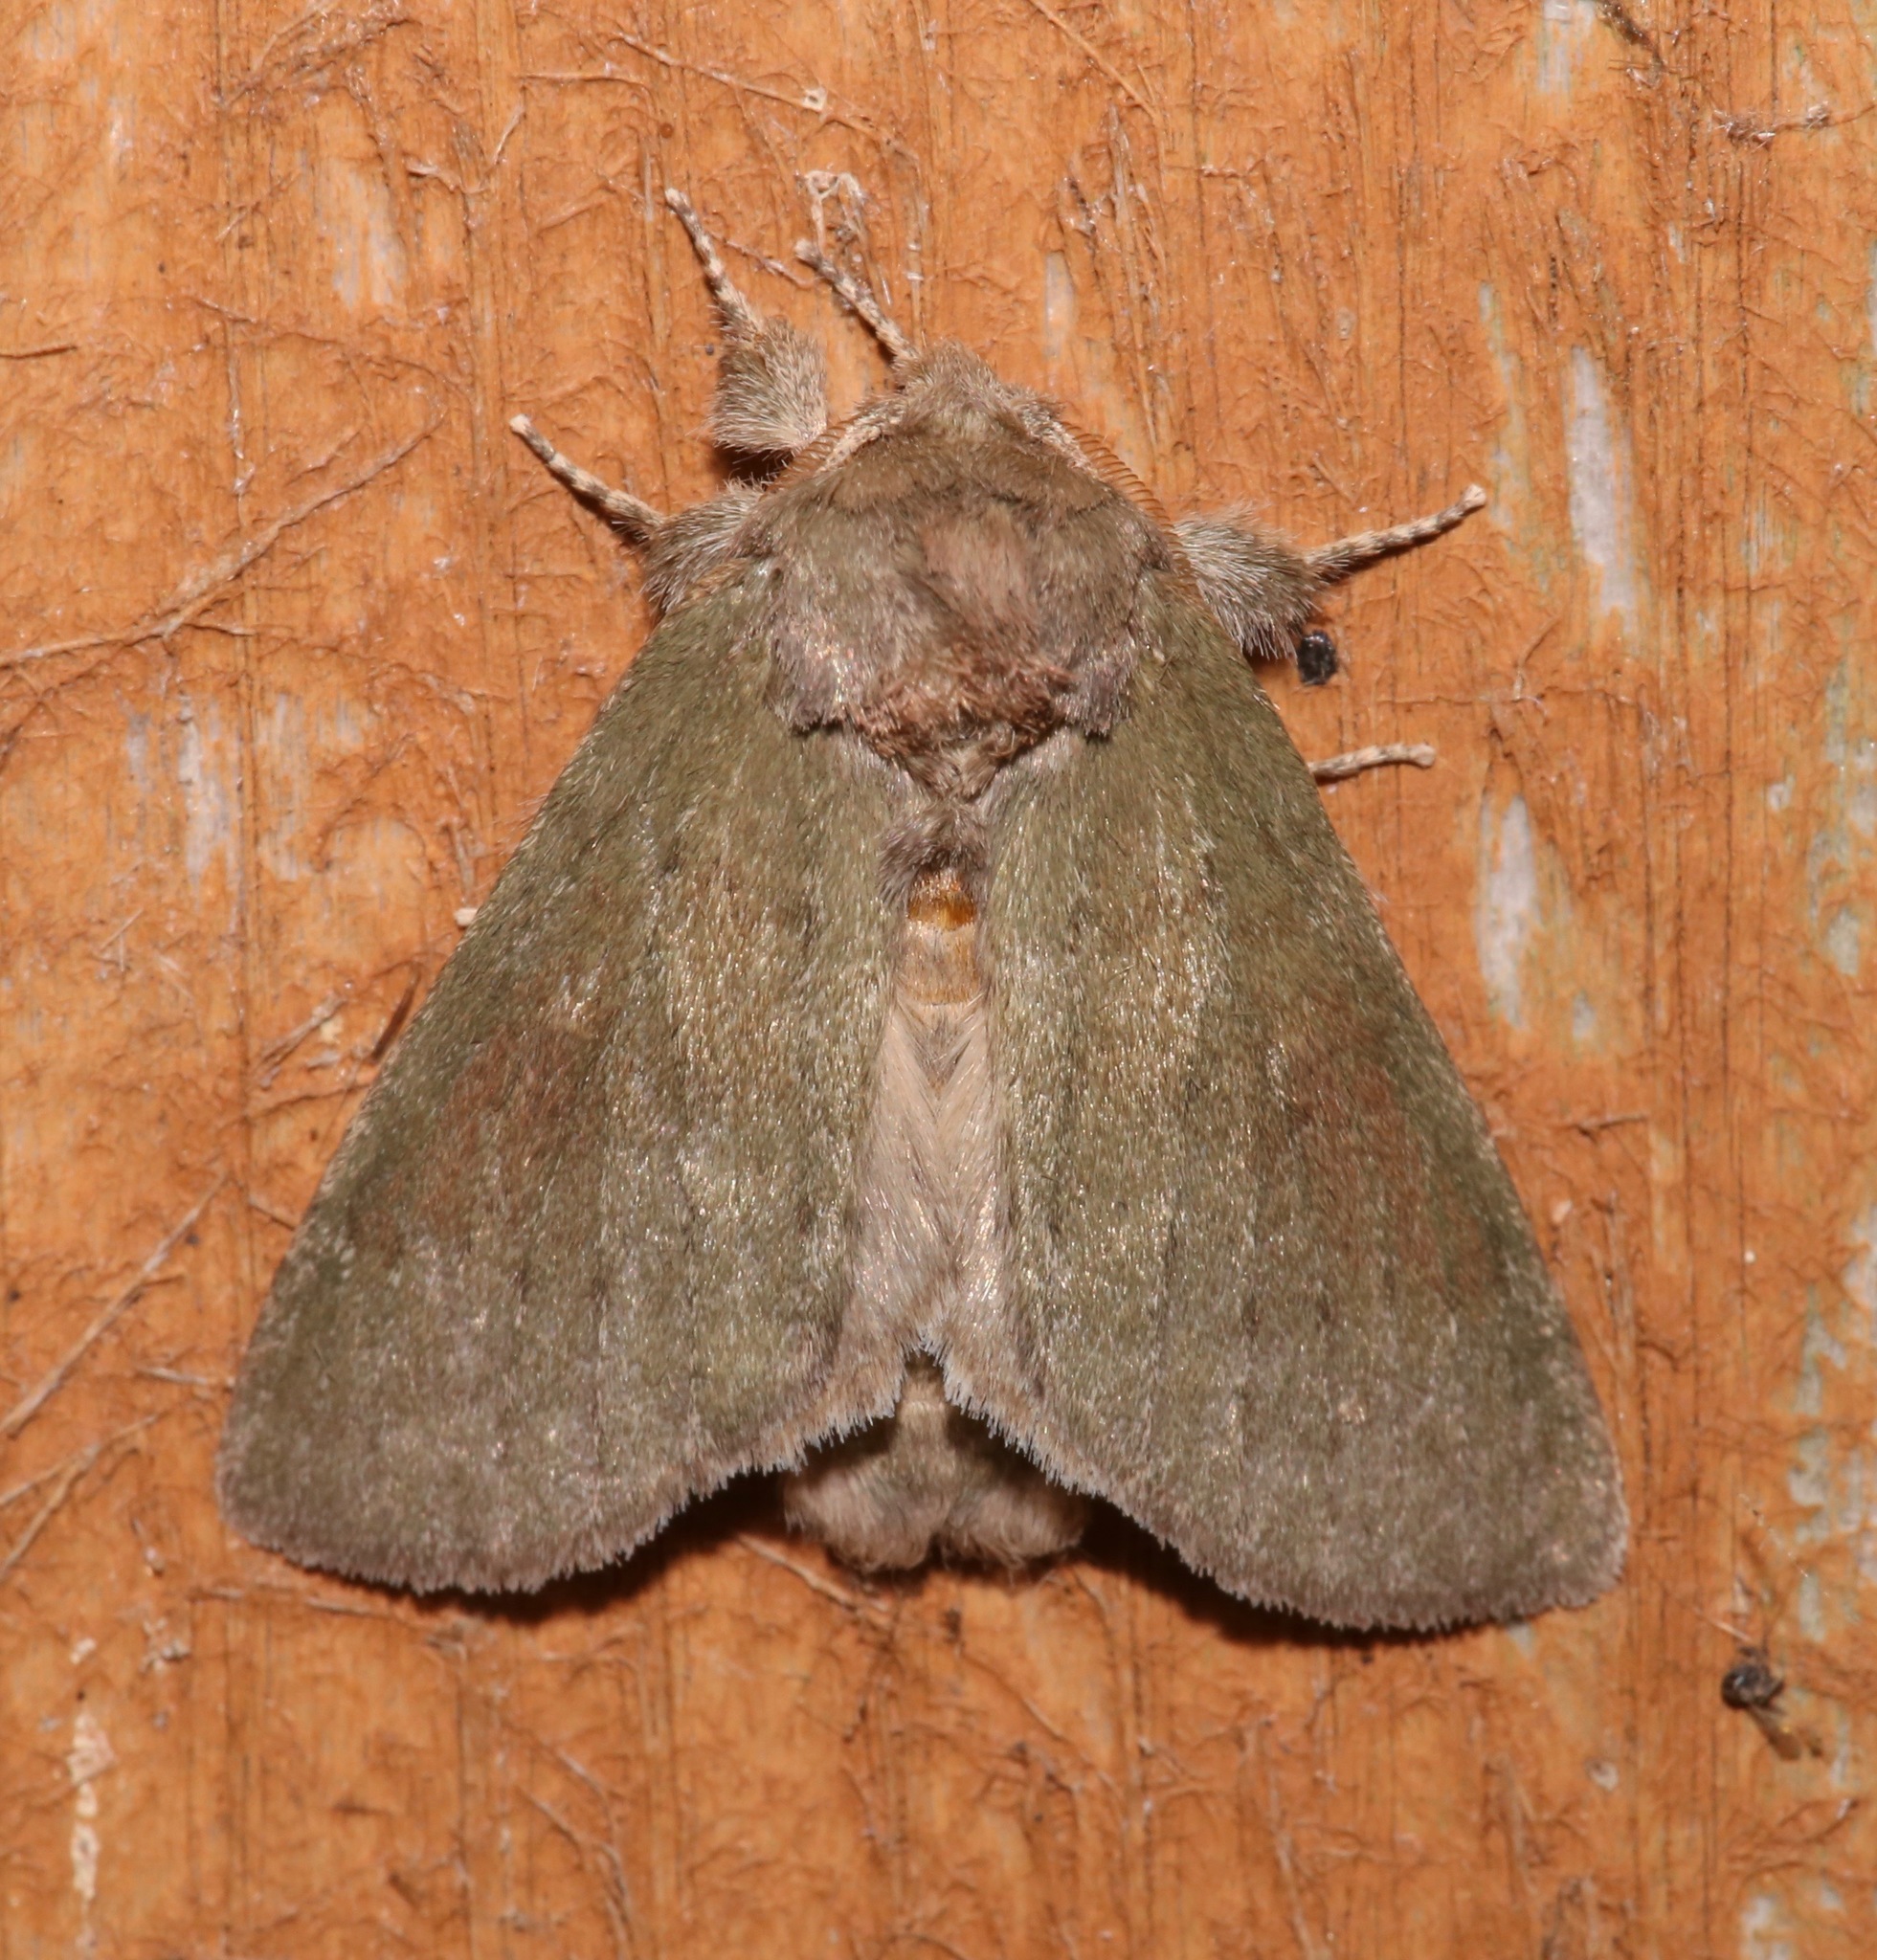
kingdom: Animalia
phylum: Arthropoda
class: Insecta
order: Lepidoptera
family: Notodontidae
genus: Misogada
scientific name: Misogada unicolor
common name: Drab prominent
